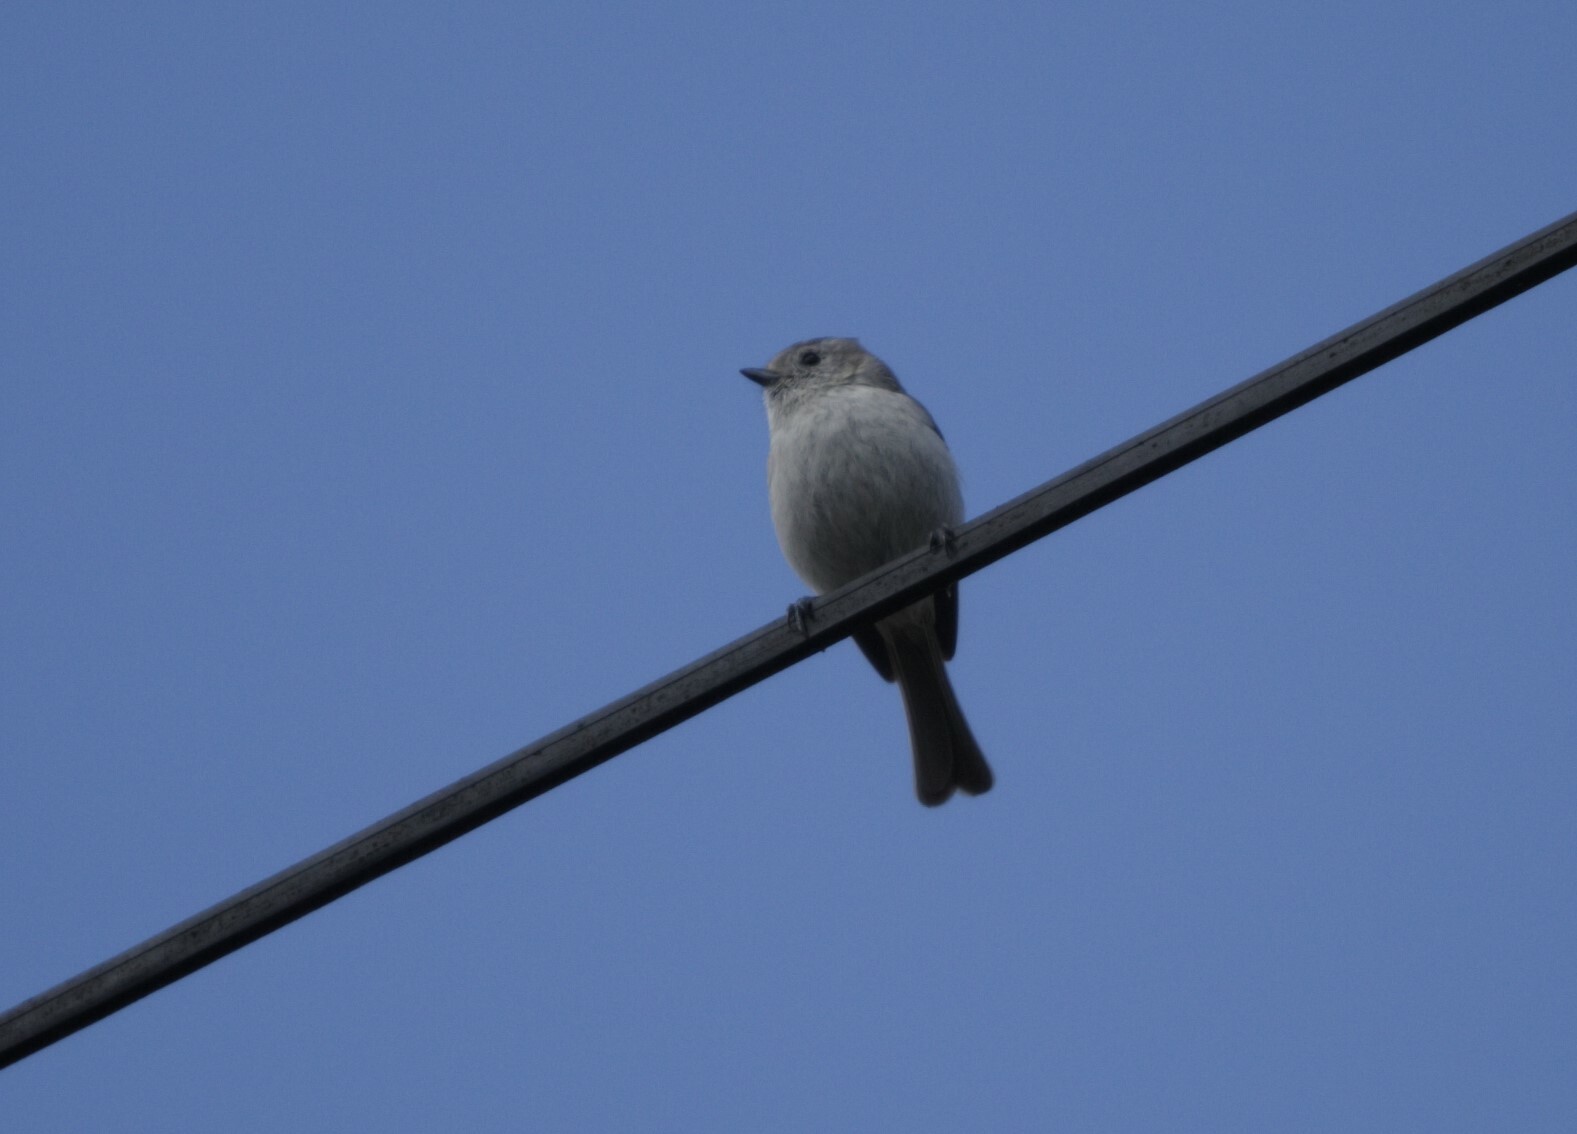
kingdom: Animalia
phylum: Chordata
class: Aves
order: Passeriformes
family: Paridae
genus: Baeolophus
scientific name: Baeolophus inornatus
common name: Oak titmouse
